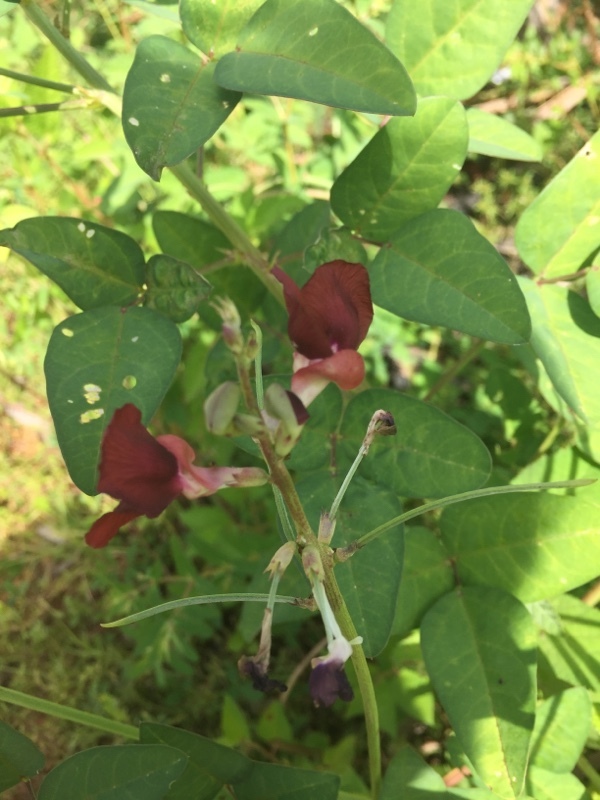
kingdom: Plantae
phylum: Tracheophyta
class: Magnoliopsida
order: Fabales
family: Fabaceae
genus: Macroptilium
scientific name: Macroptilium lathyroides
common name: Wild bushbean
